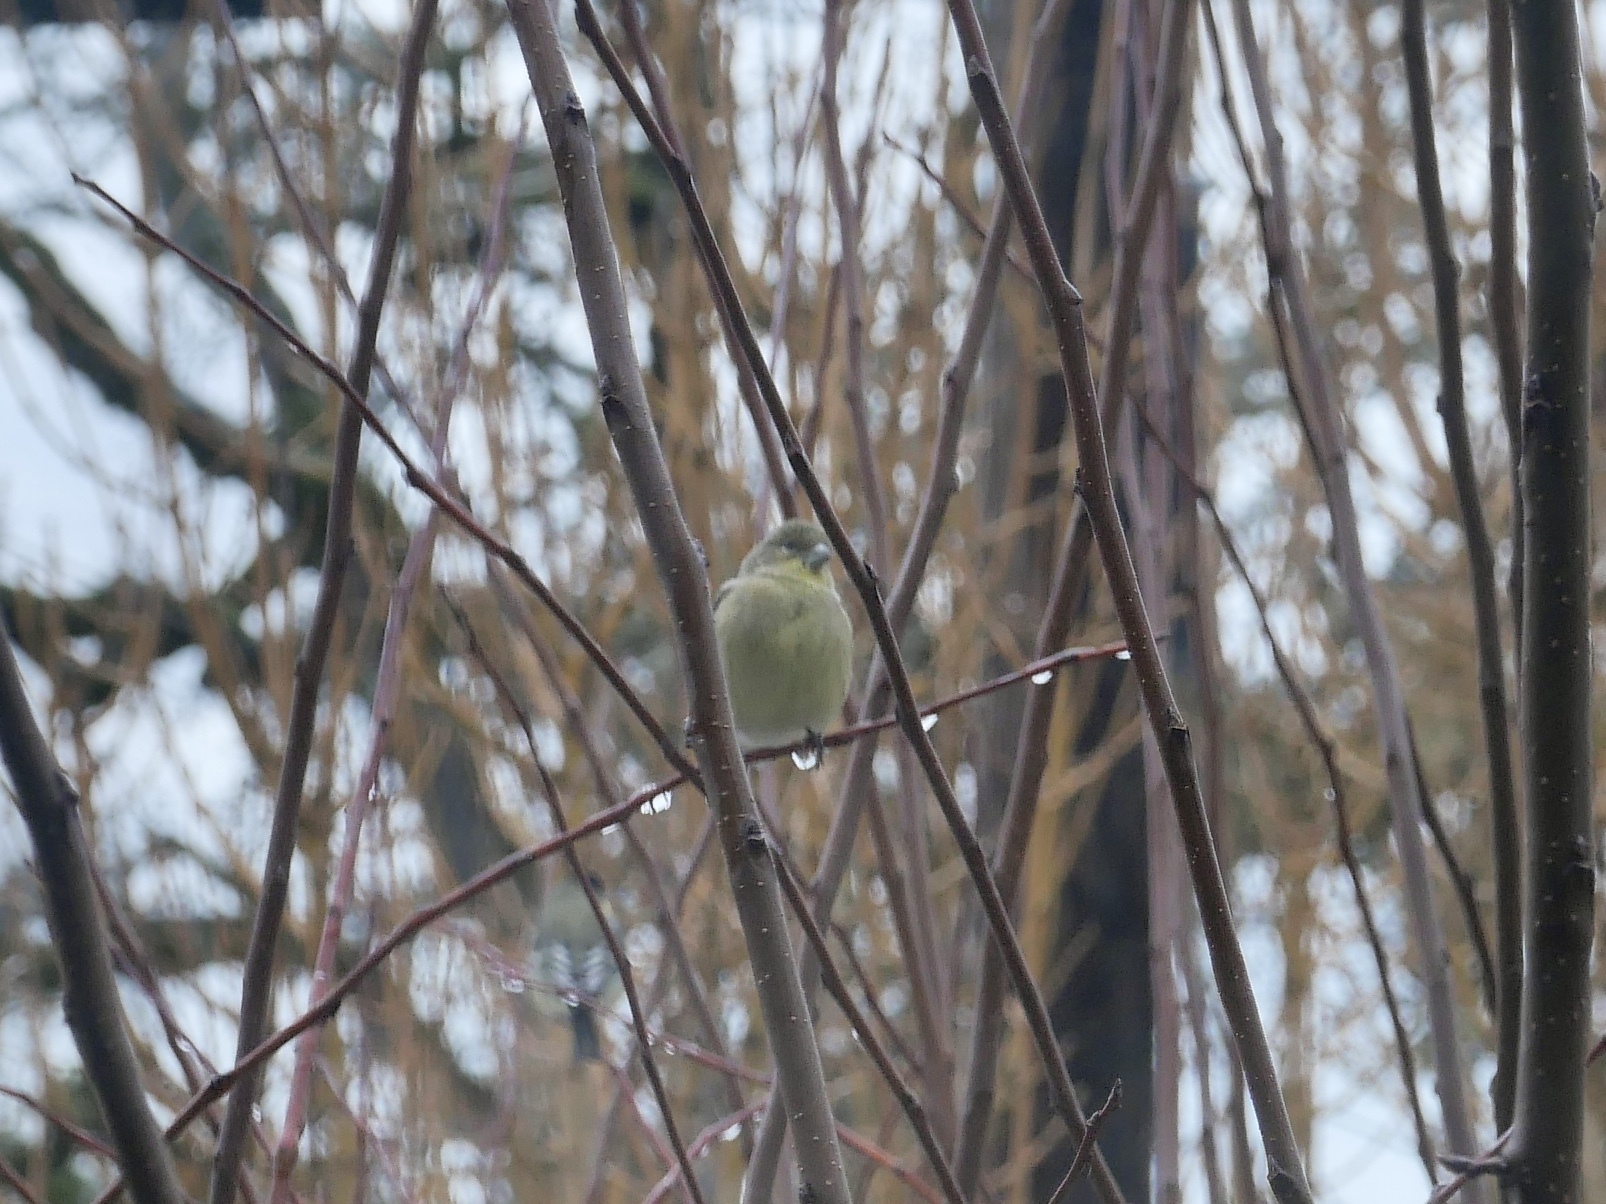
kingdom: Animalia
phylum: Chordata
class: Aves
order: Passeriformes
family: Fringillidae
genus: Spinus
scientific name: Spinus psaltria
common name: Lesser goldfinch
